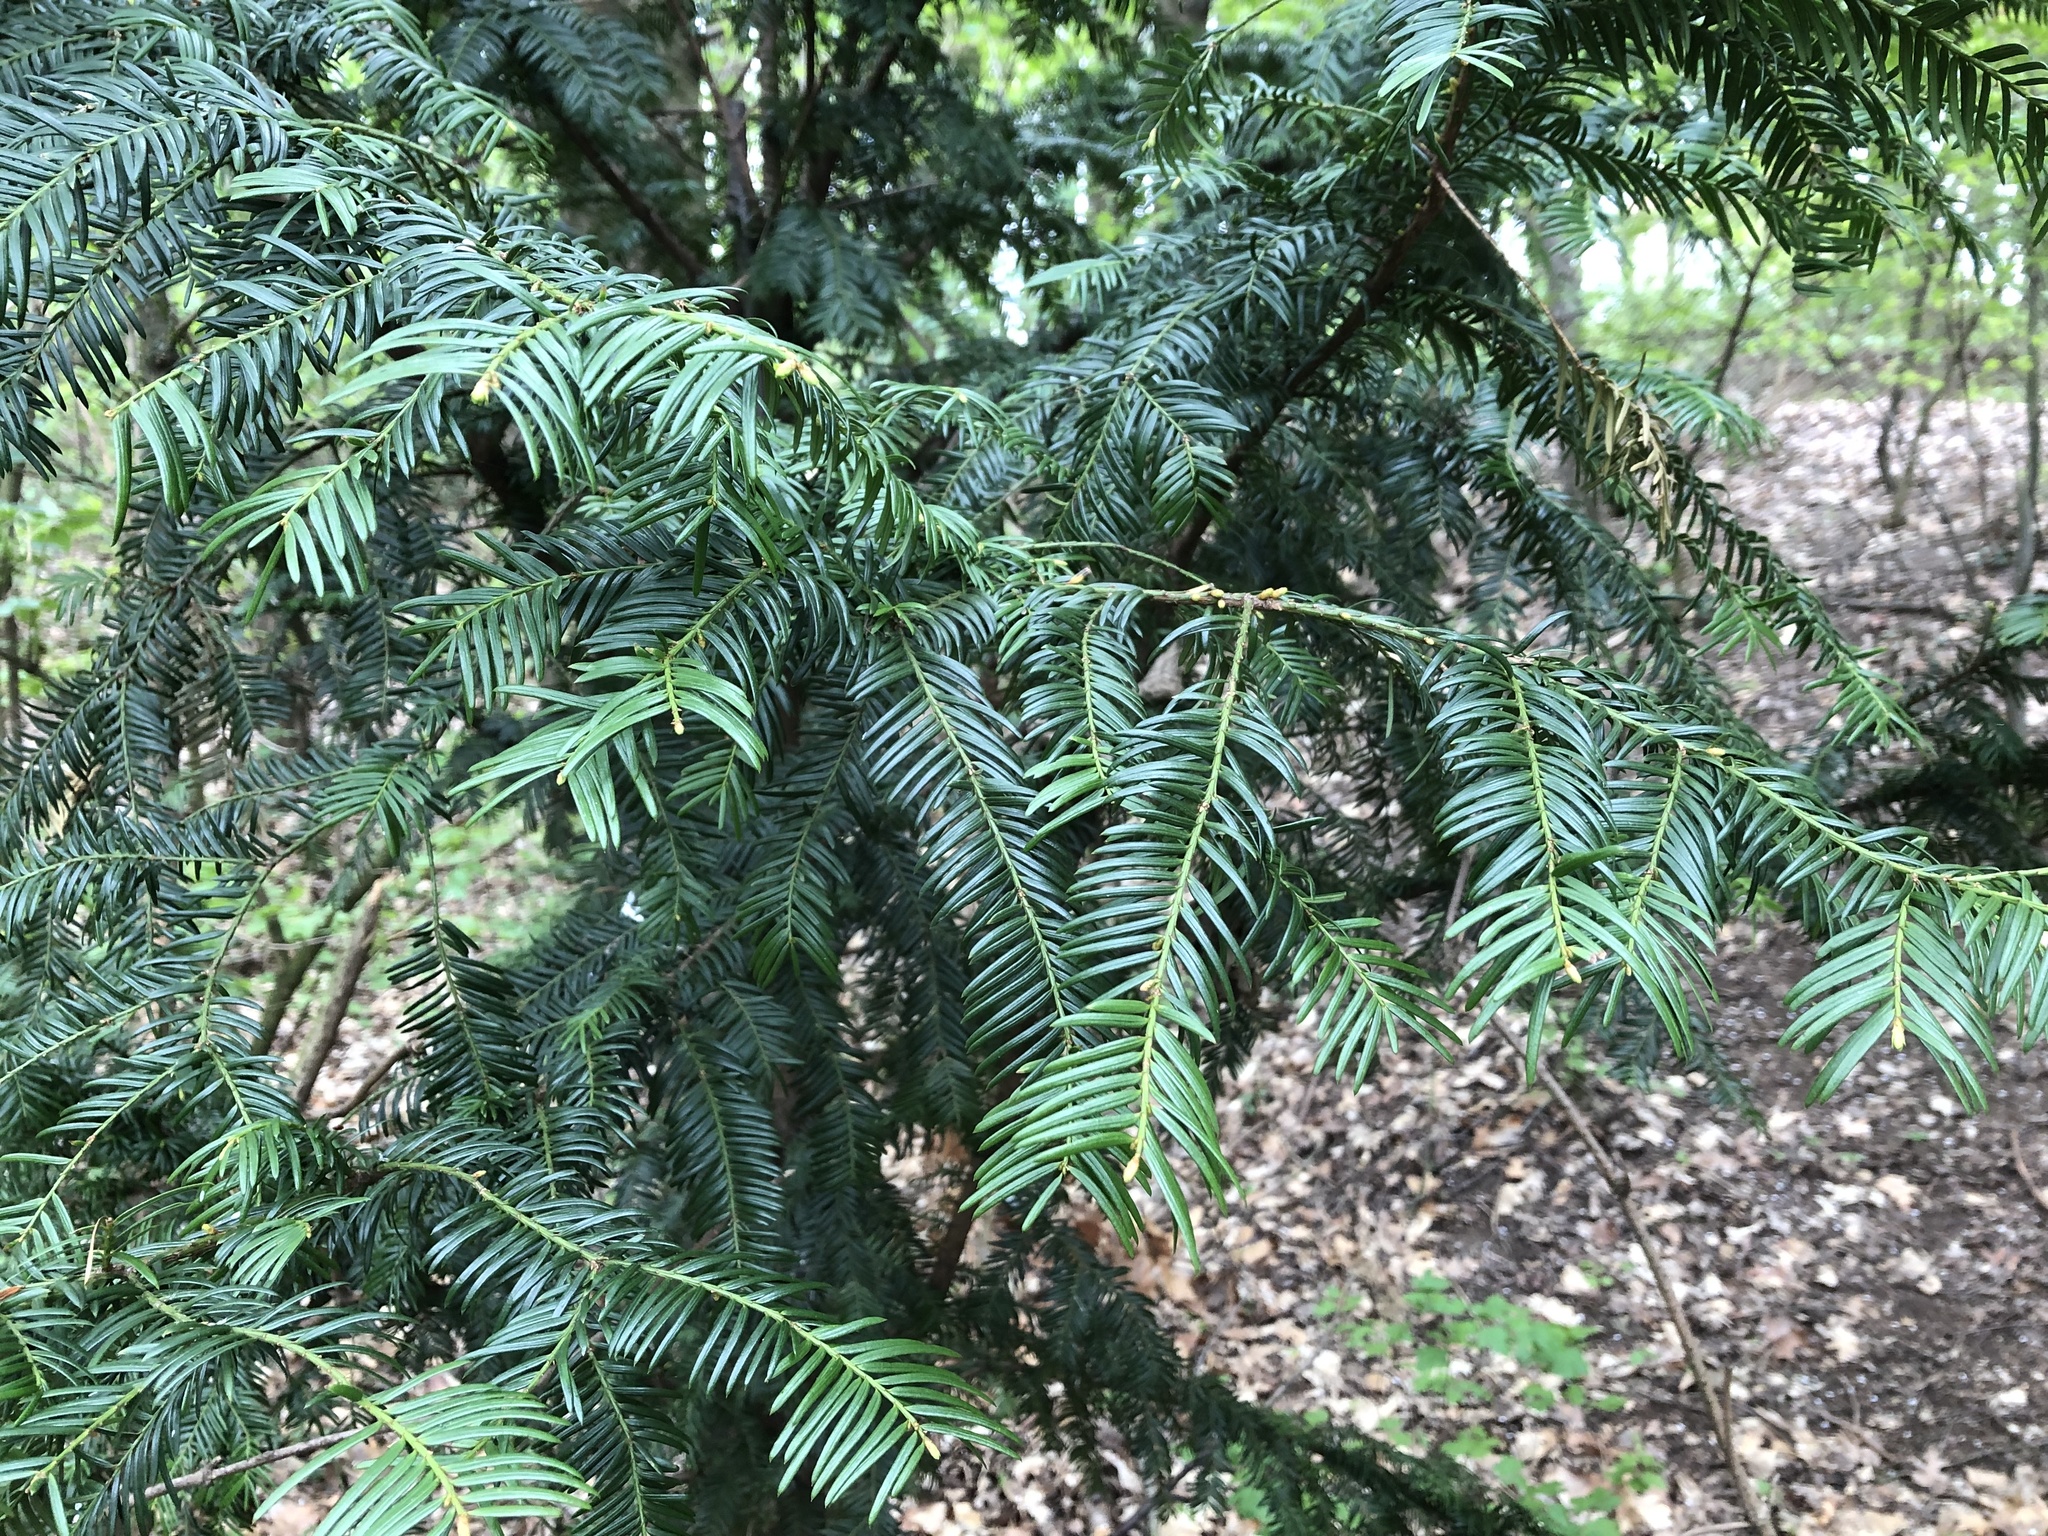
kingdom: Plantae
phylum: Tracheophyta
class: Pinopsida
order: Pinales
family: Taxaceae
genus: Taxus
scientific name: Taxus baccata
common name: Yew
